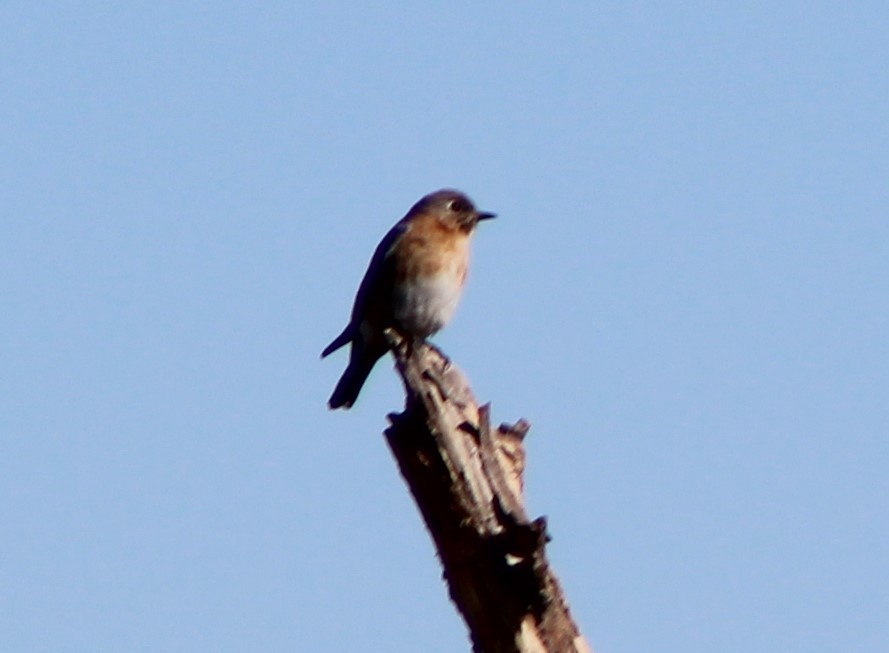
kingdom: Animalia
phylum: Chordata
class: Aves
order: Passeriformes
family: Turdidae
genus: Sialia
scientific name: Sialia sialis
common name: Eastern bluebird
